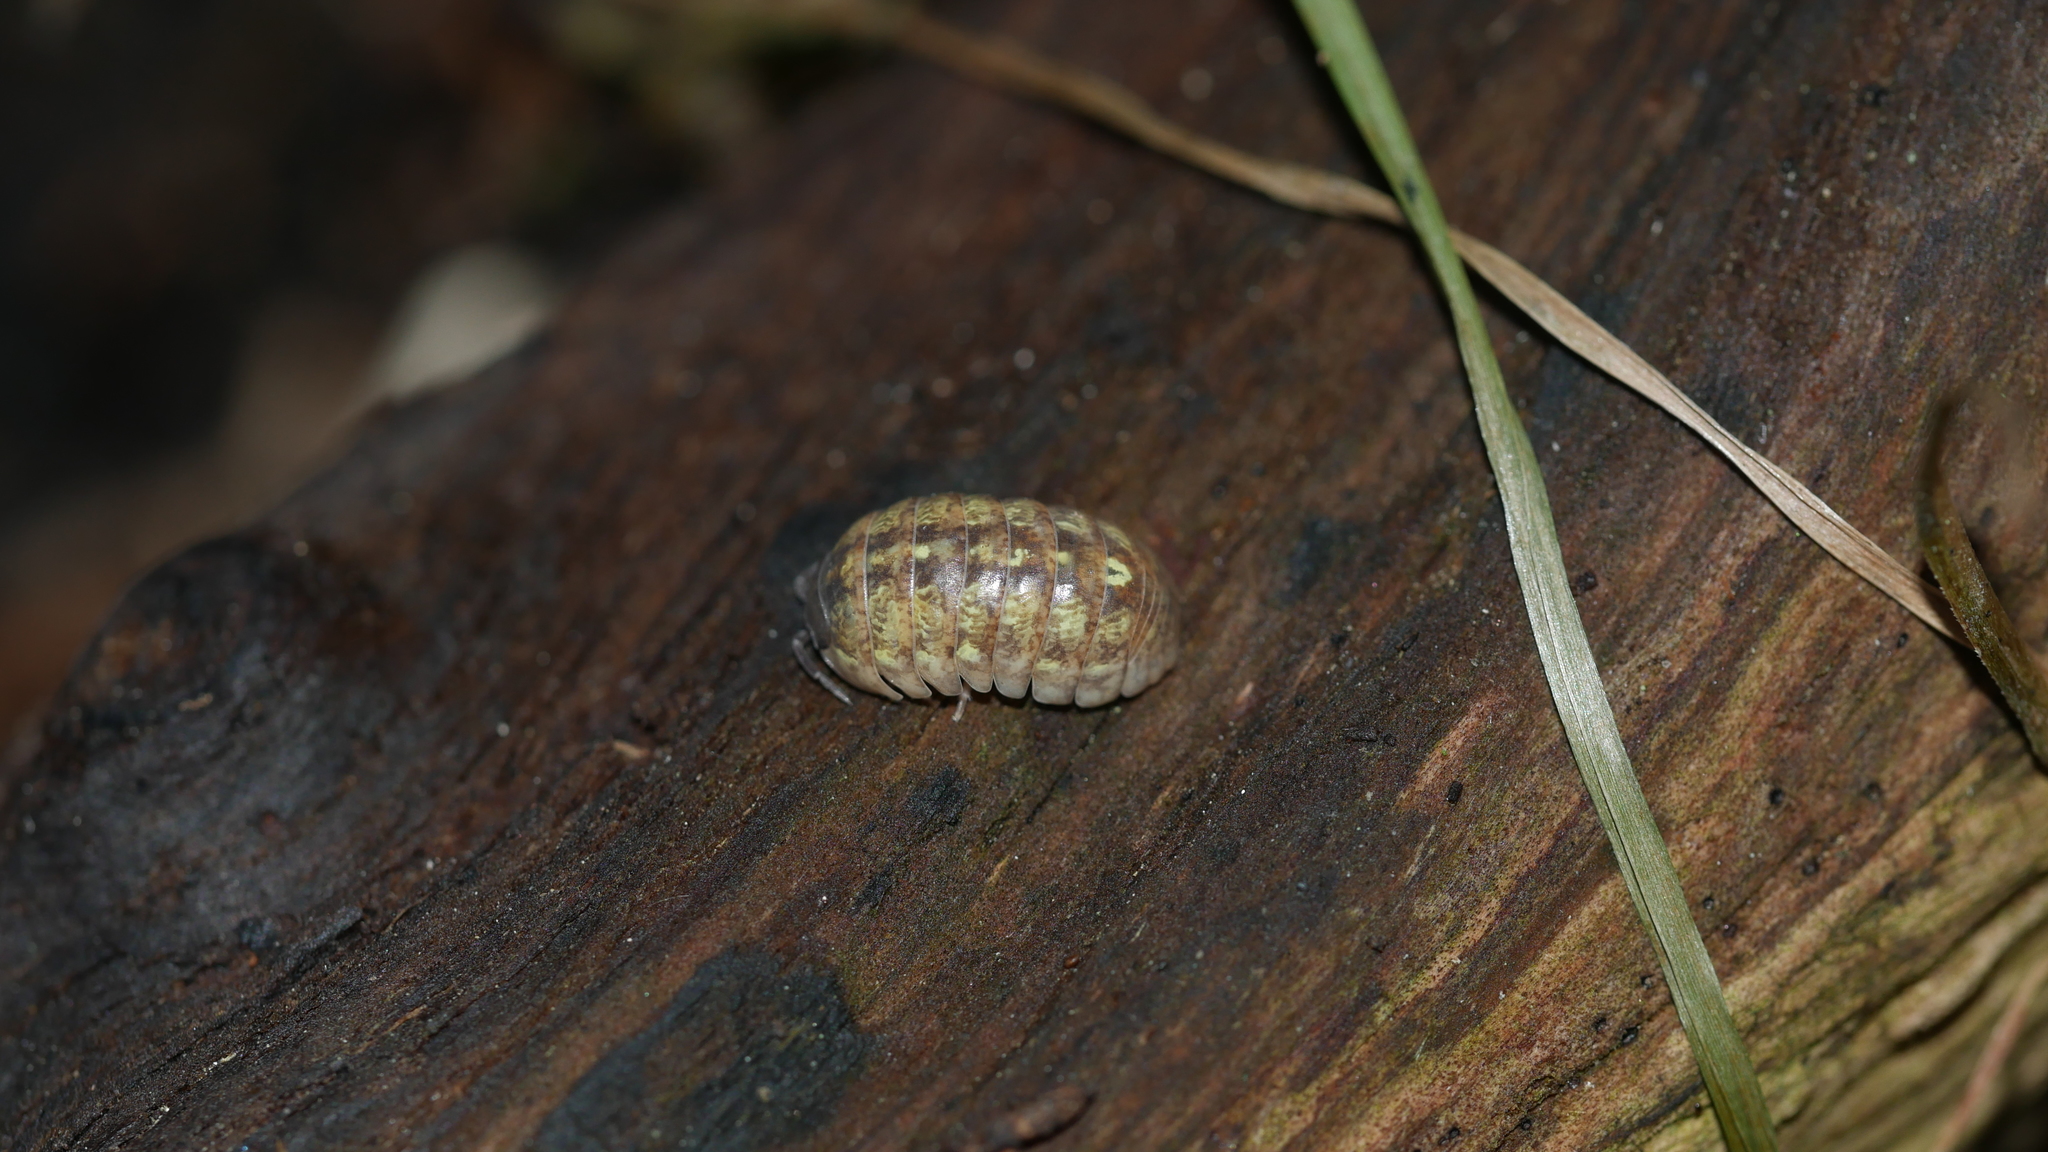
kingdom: Animalia
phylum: Arthropoda
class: Malacostraca
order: Isopoda
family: Armadillidiidae
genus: Armadillidium
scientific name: Armadillidium vulgare
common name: Common pill woodlouse
